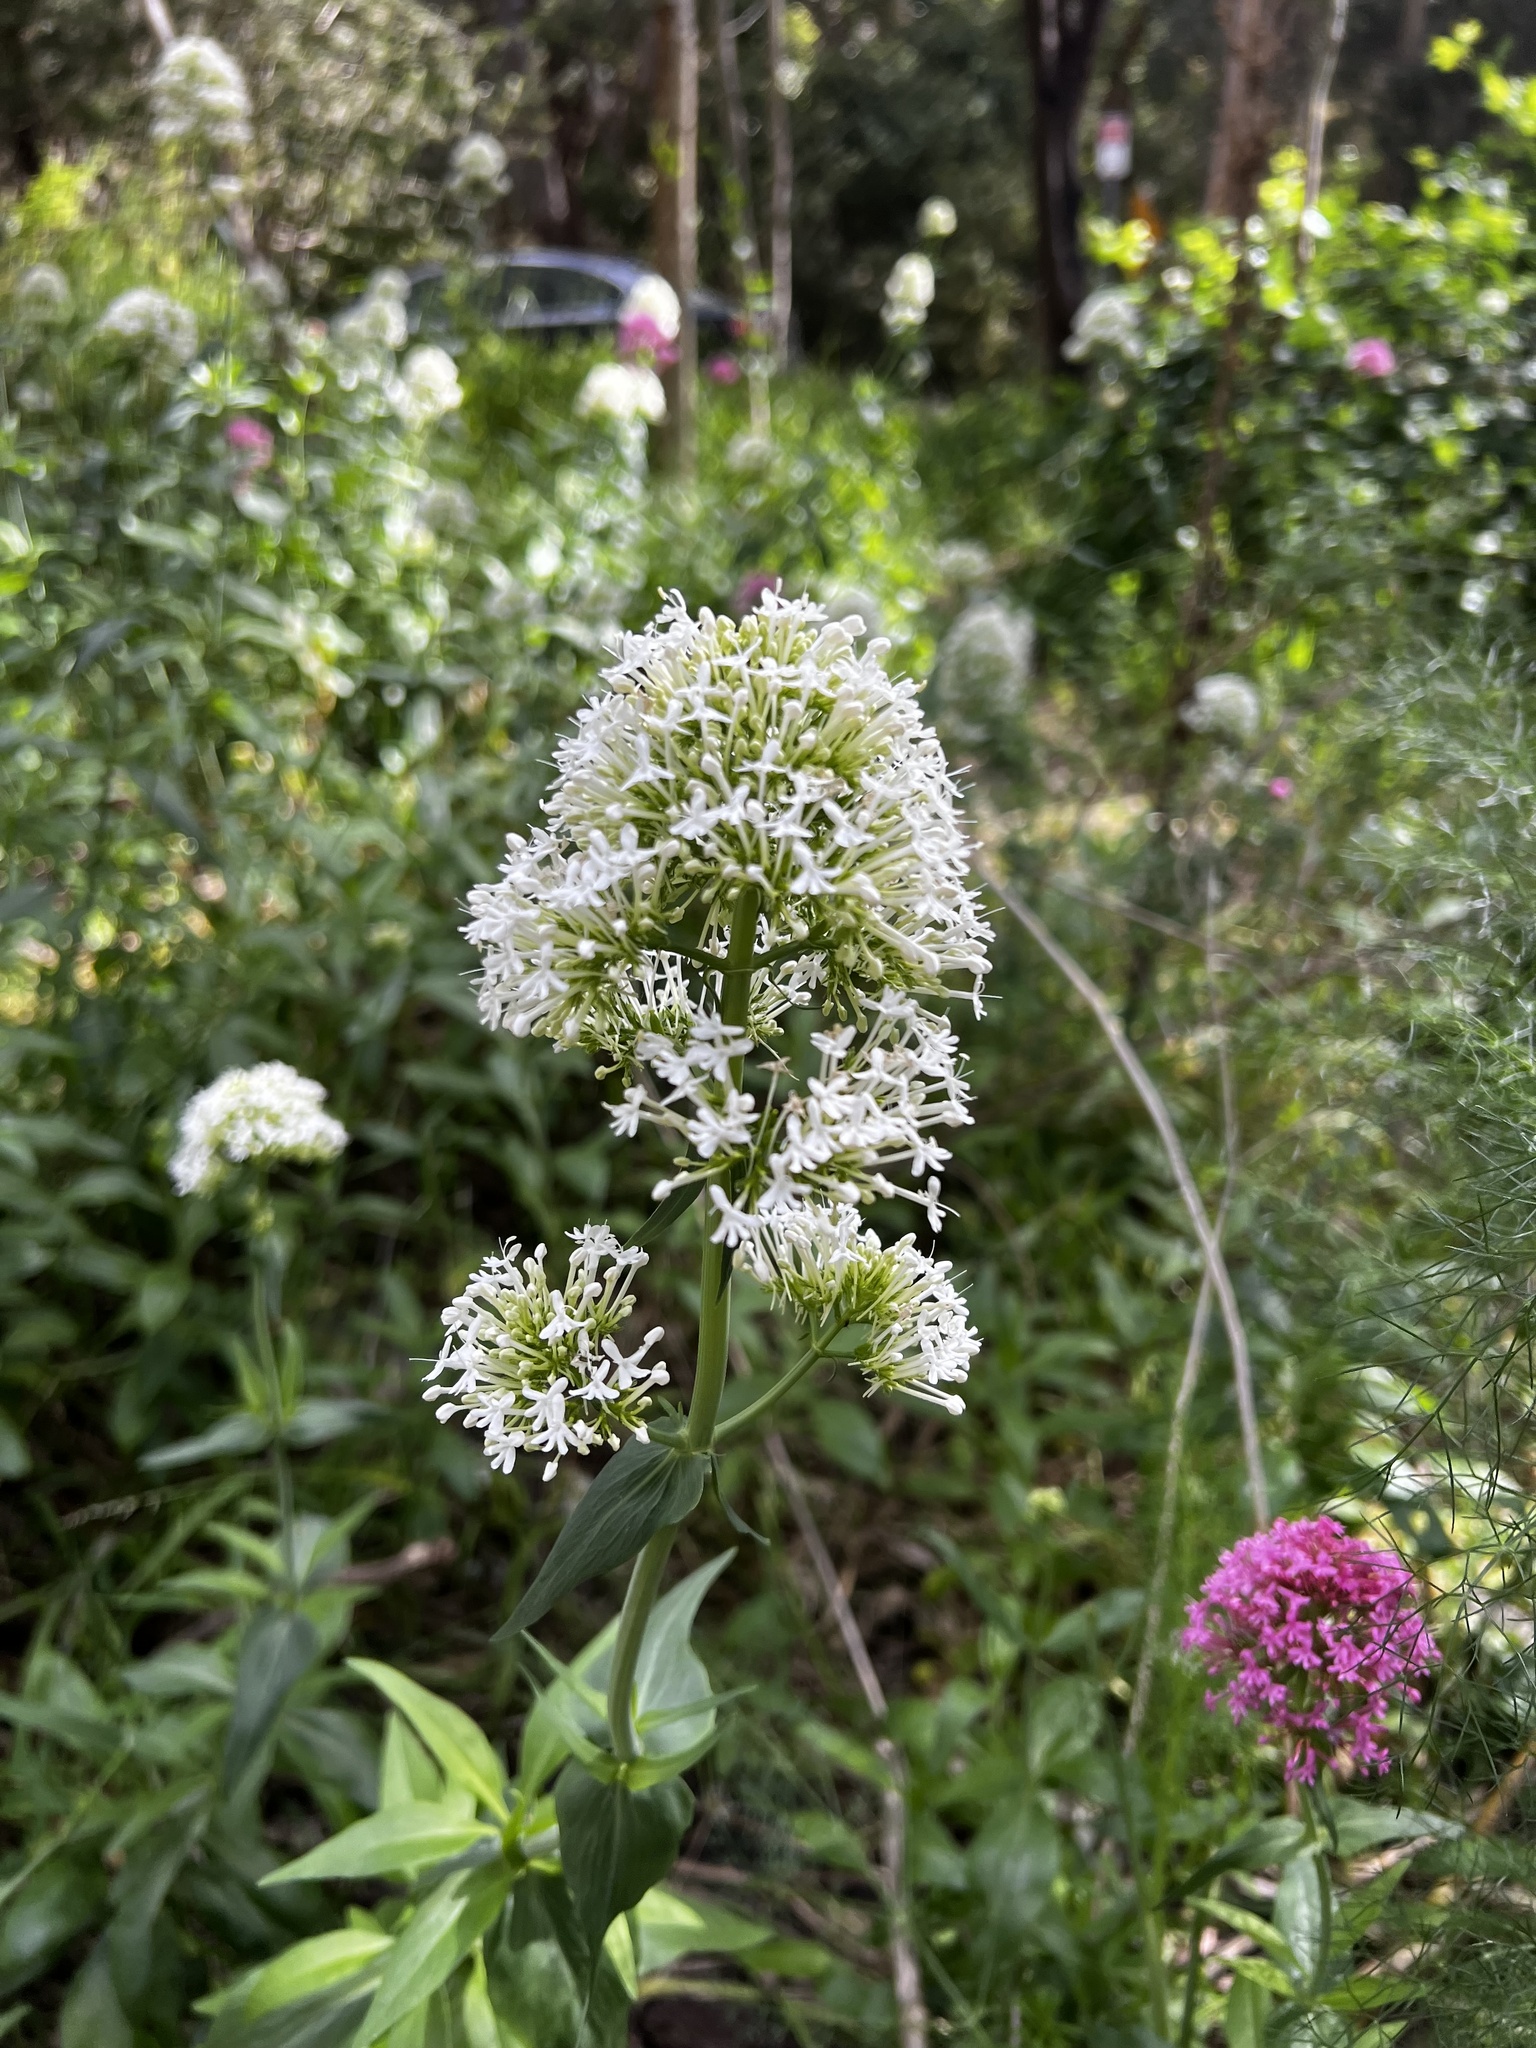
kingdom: Plantae
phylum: Tracheophyta
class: Magnoliopsida
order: Dipsacales
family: Caprifoliaceae
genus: Centranthus
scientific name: Centranthus ruber
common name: Red valerian
